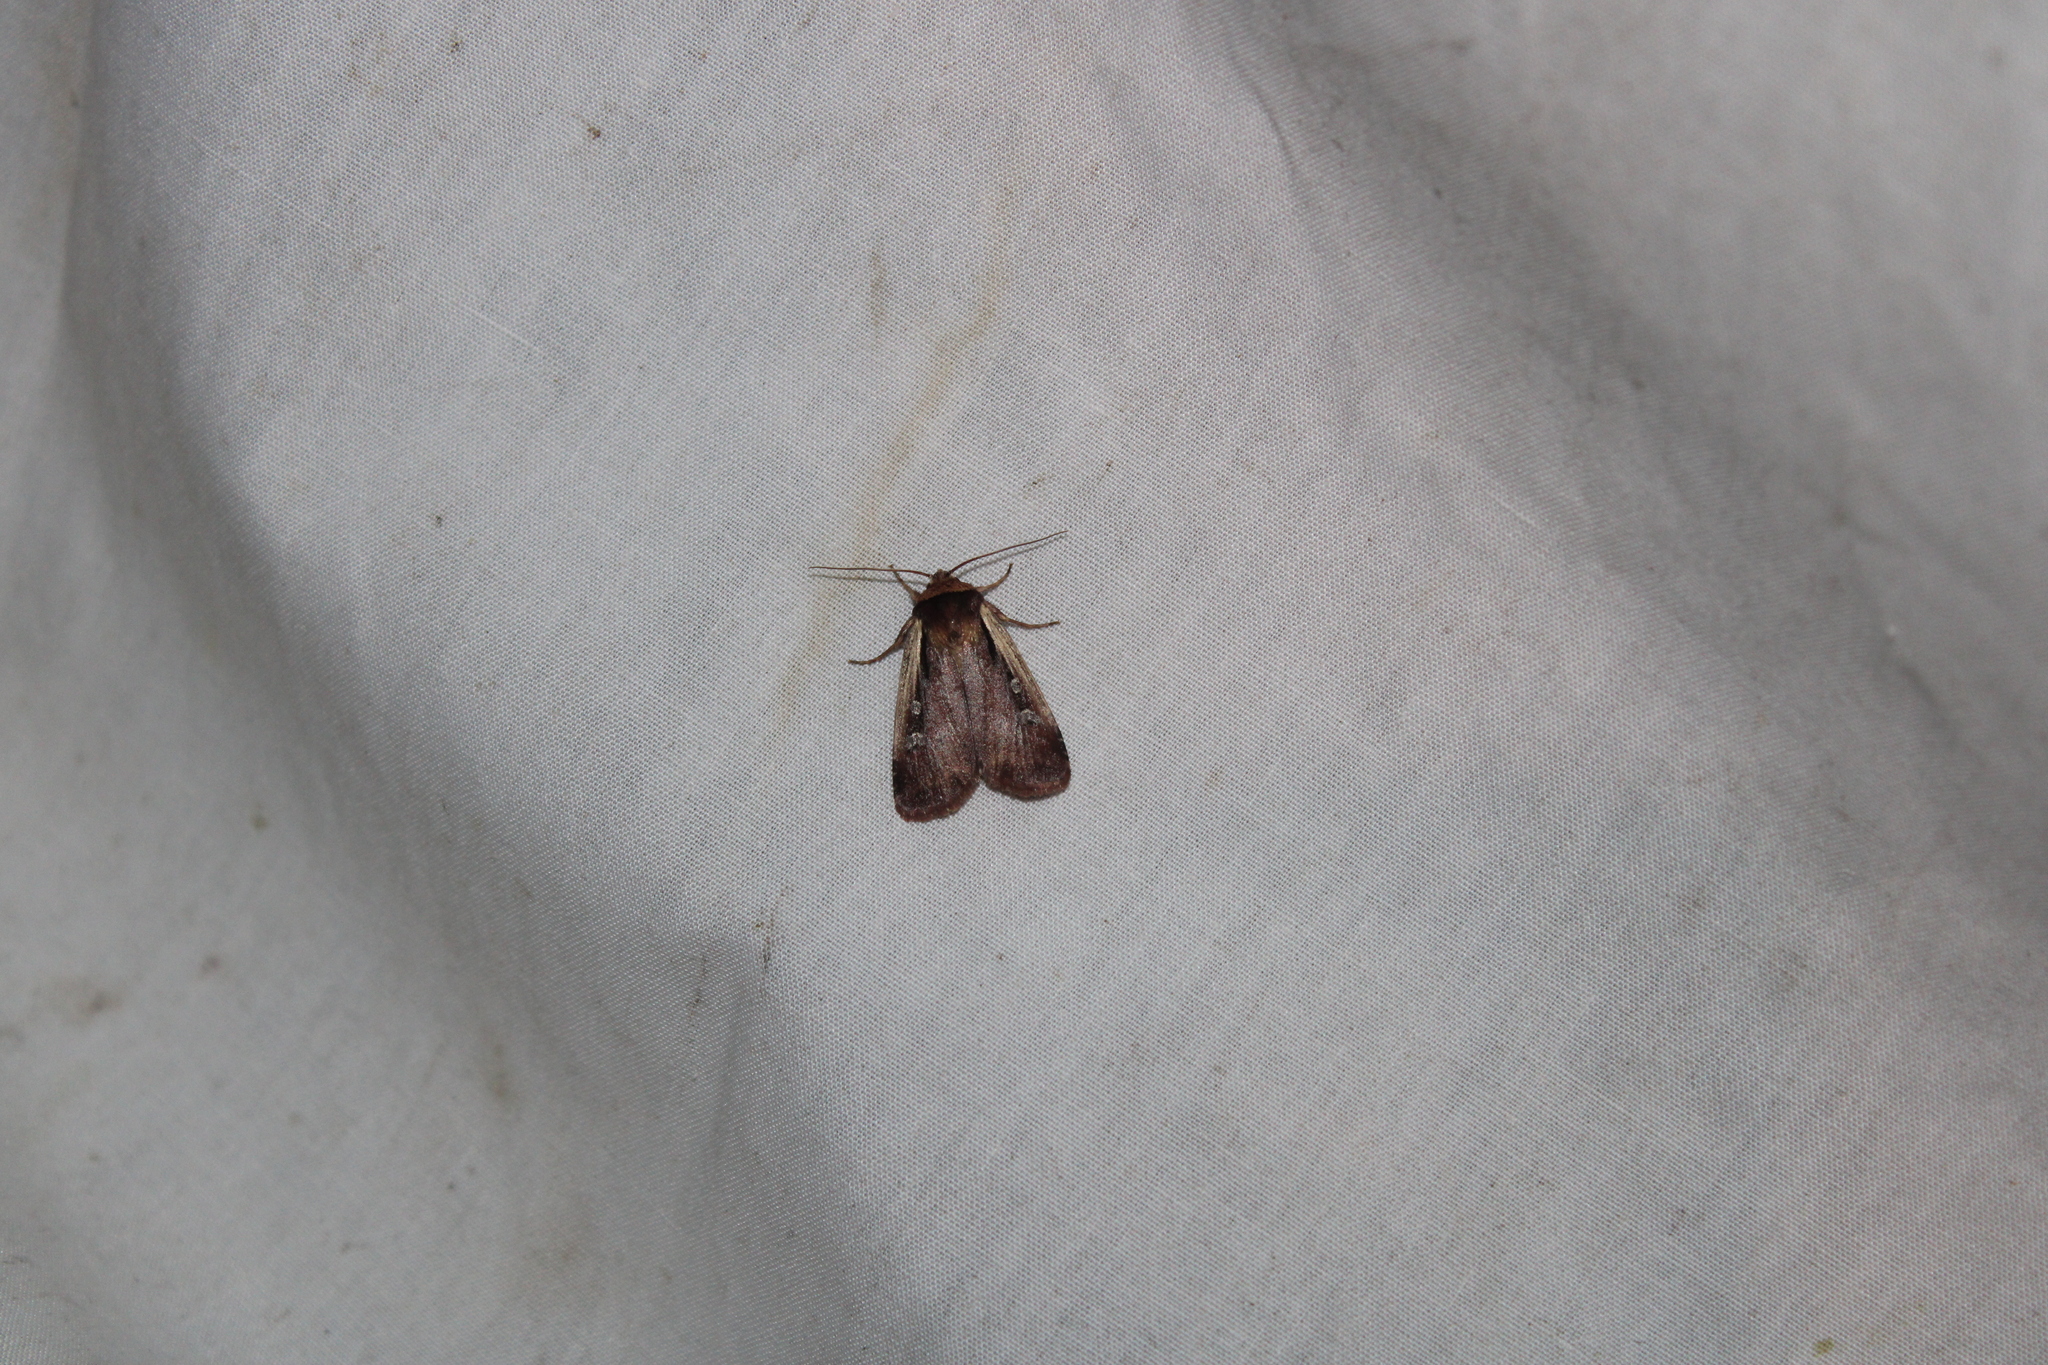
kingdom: Animalia
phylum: Arthropoda
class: Insecta
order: Lepidoptera
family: Noctuidae
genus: Ochropleura
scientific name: Ochropleura implecta
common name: Flame-shouldered dart
